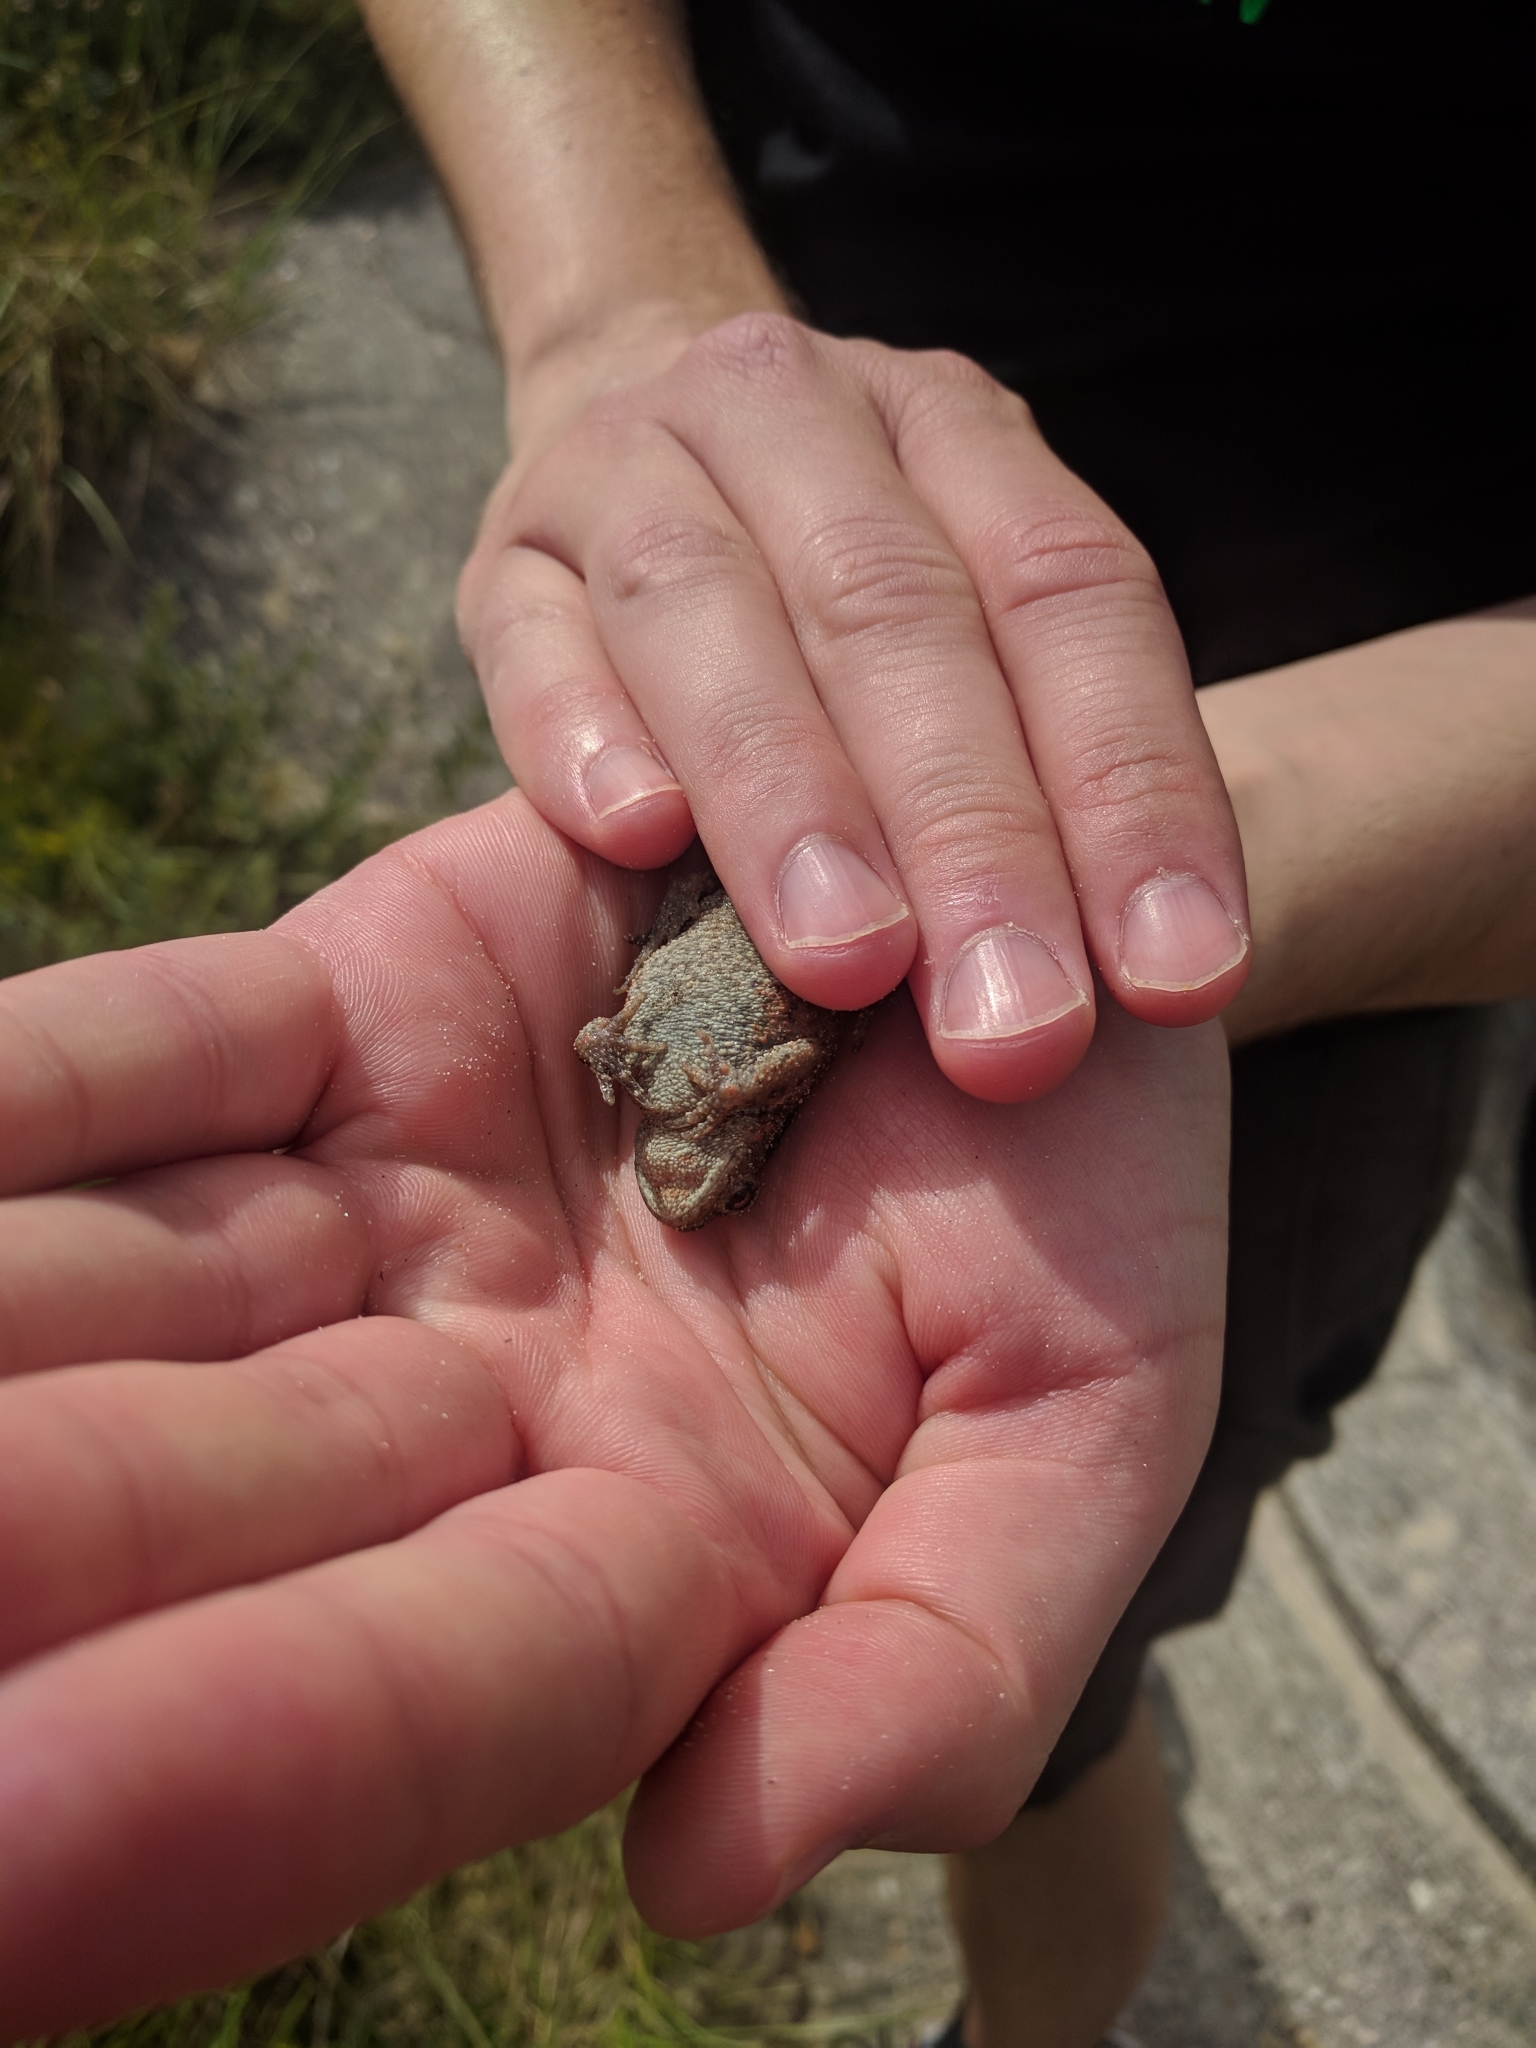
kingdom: Animalia
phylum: Chordata
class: Amphibia
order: Anura
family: Bufonidae
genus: Bufo
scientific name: Bufo bufo
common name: Common toad
